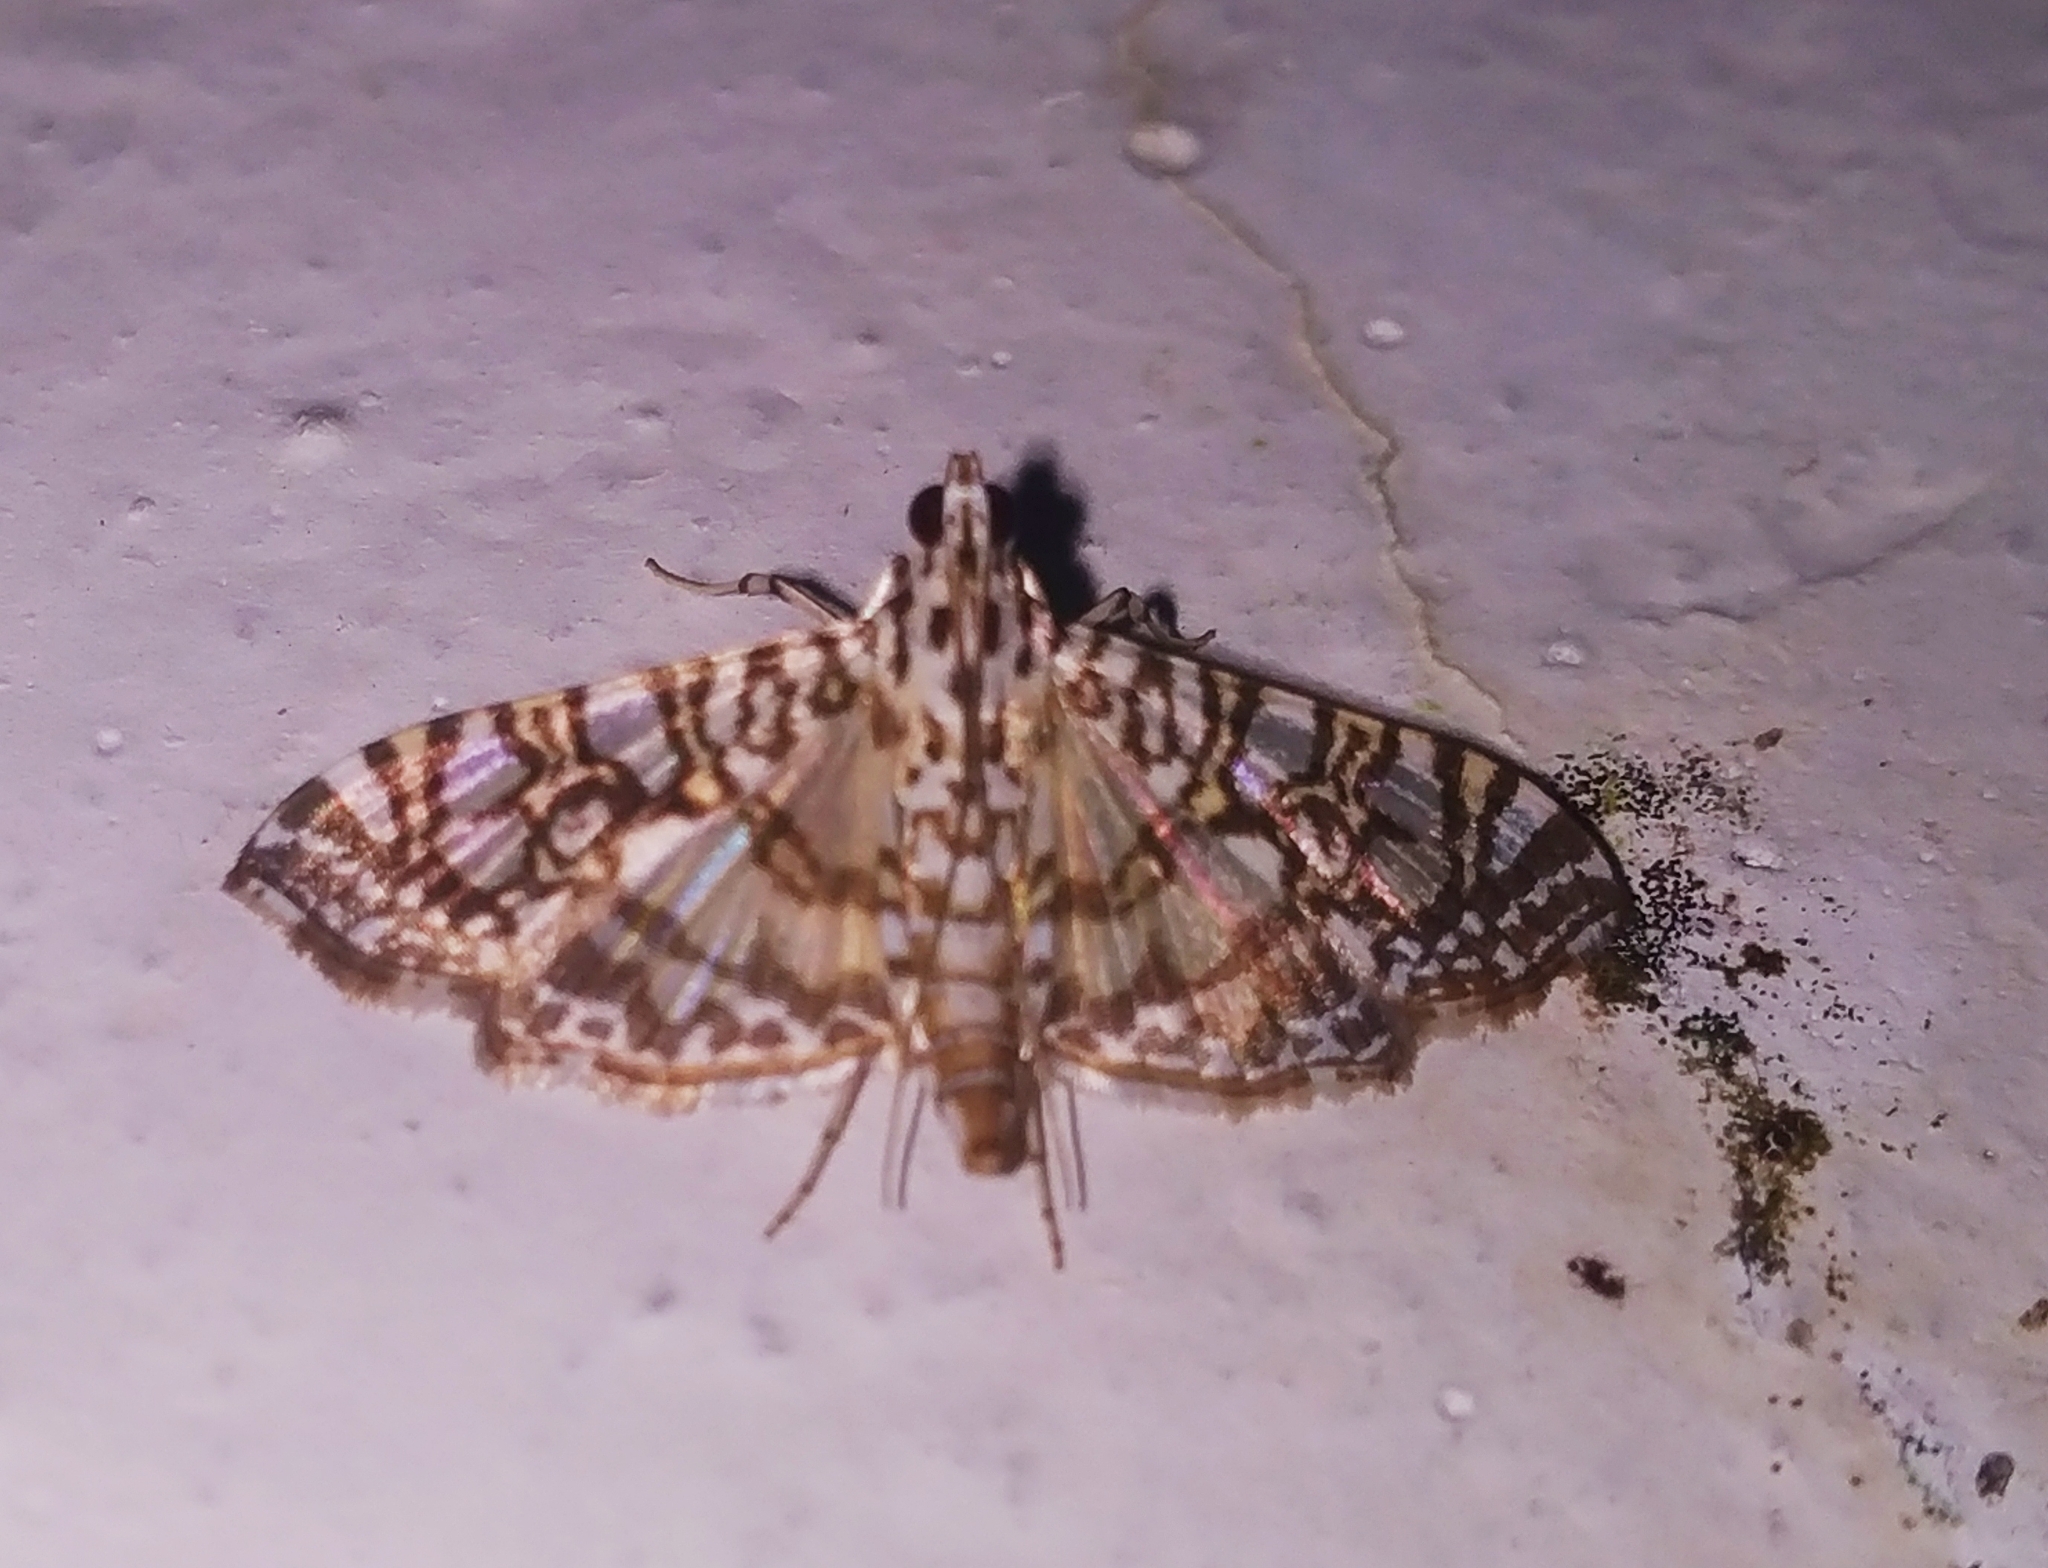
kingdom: Animalia
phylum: Arthropoda
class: Insecta
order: Lepidoptera
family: Crambidae
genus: Glyphodes
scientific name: Glyphodes onychinalis
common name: Swan plant moth
